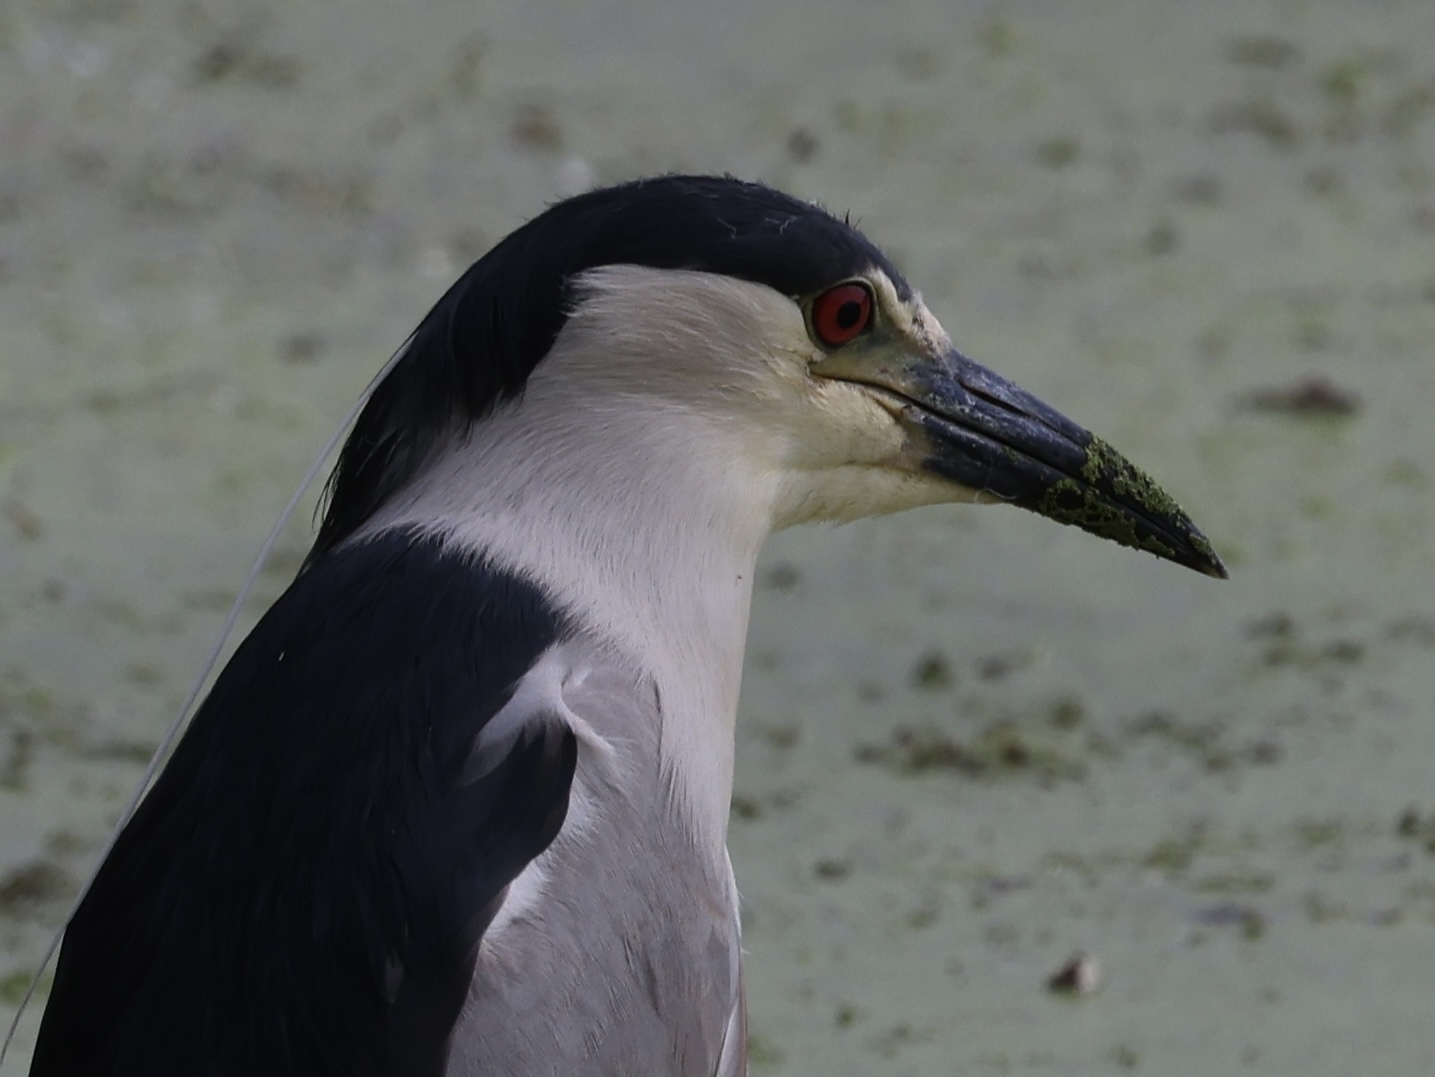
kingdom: Animalia
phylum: Chordata
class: Aves
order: Pelecaniformes
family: Ardeidae
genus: Nycticorax
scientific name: Nycticorax nycticorax
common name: Black-crowned night heron
